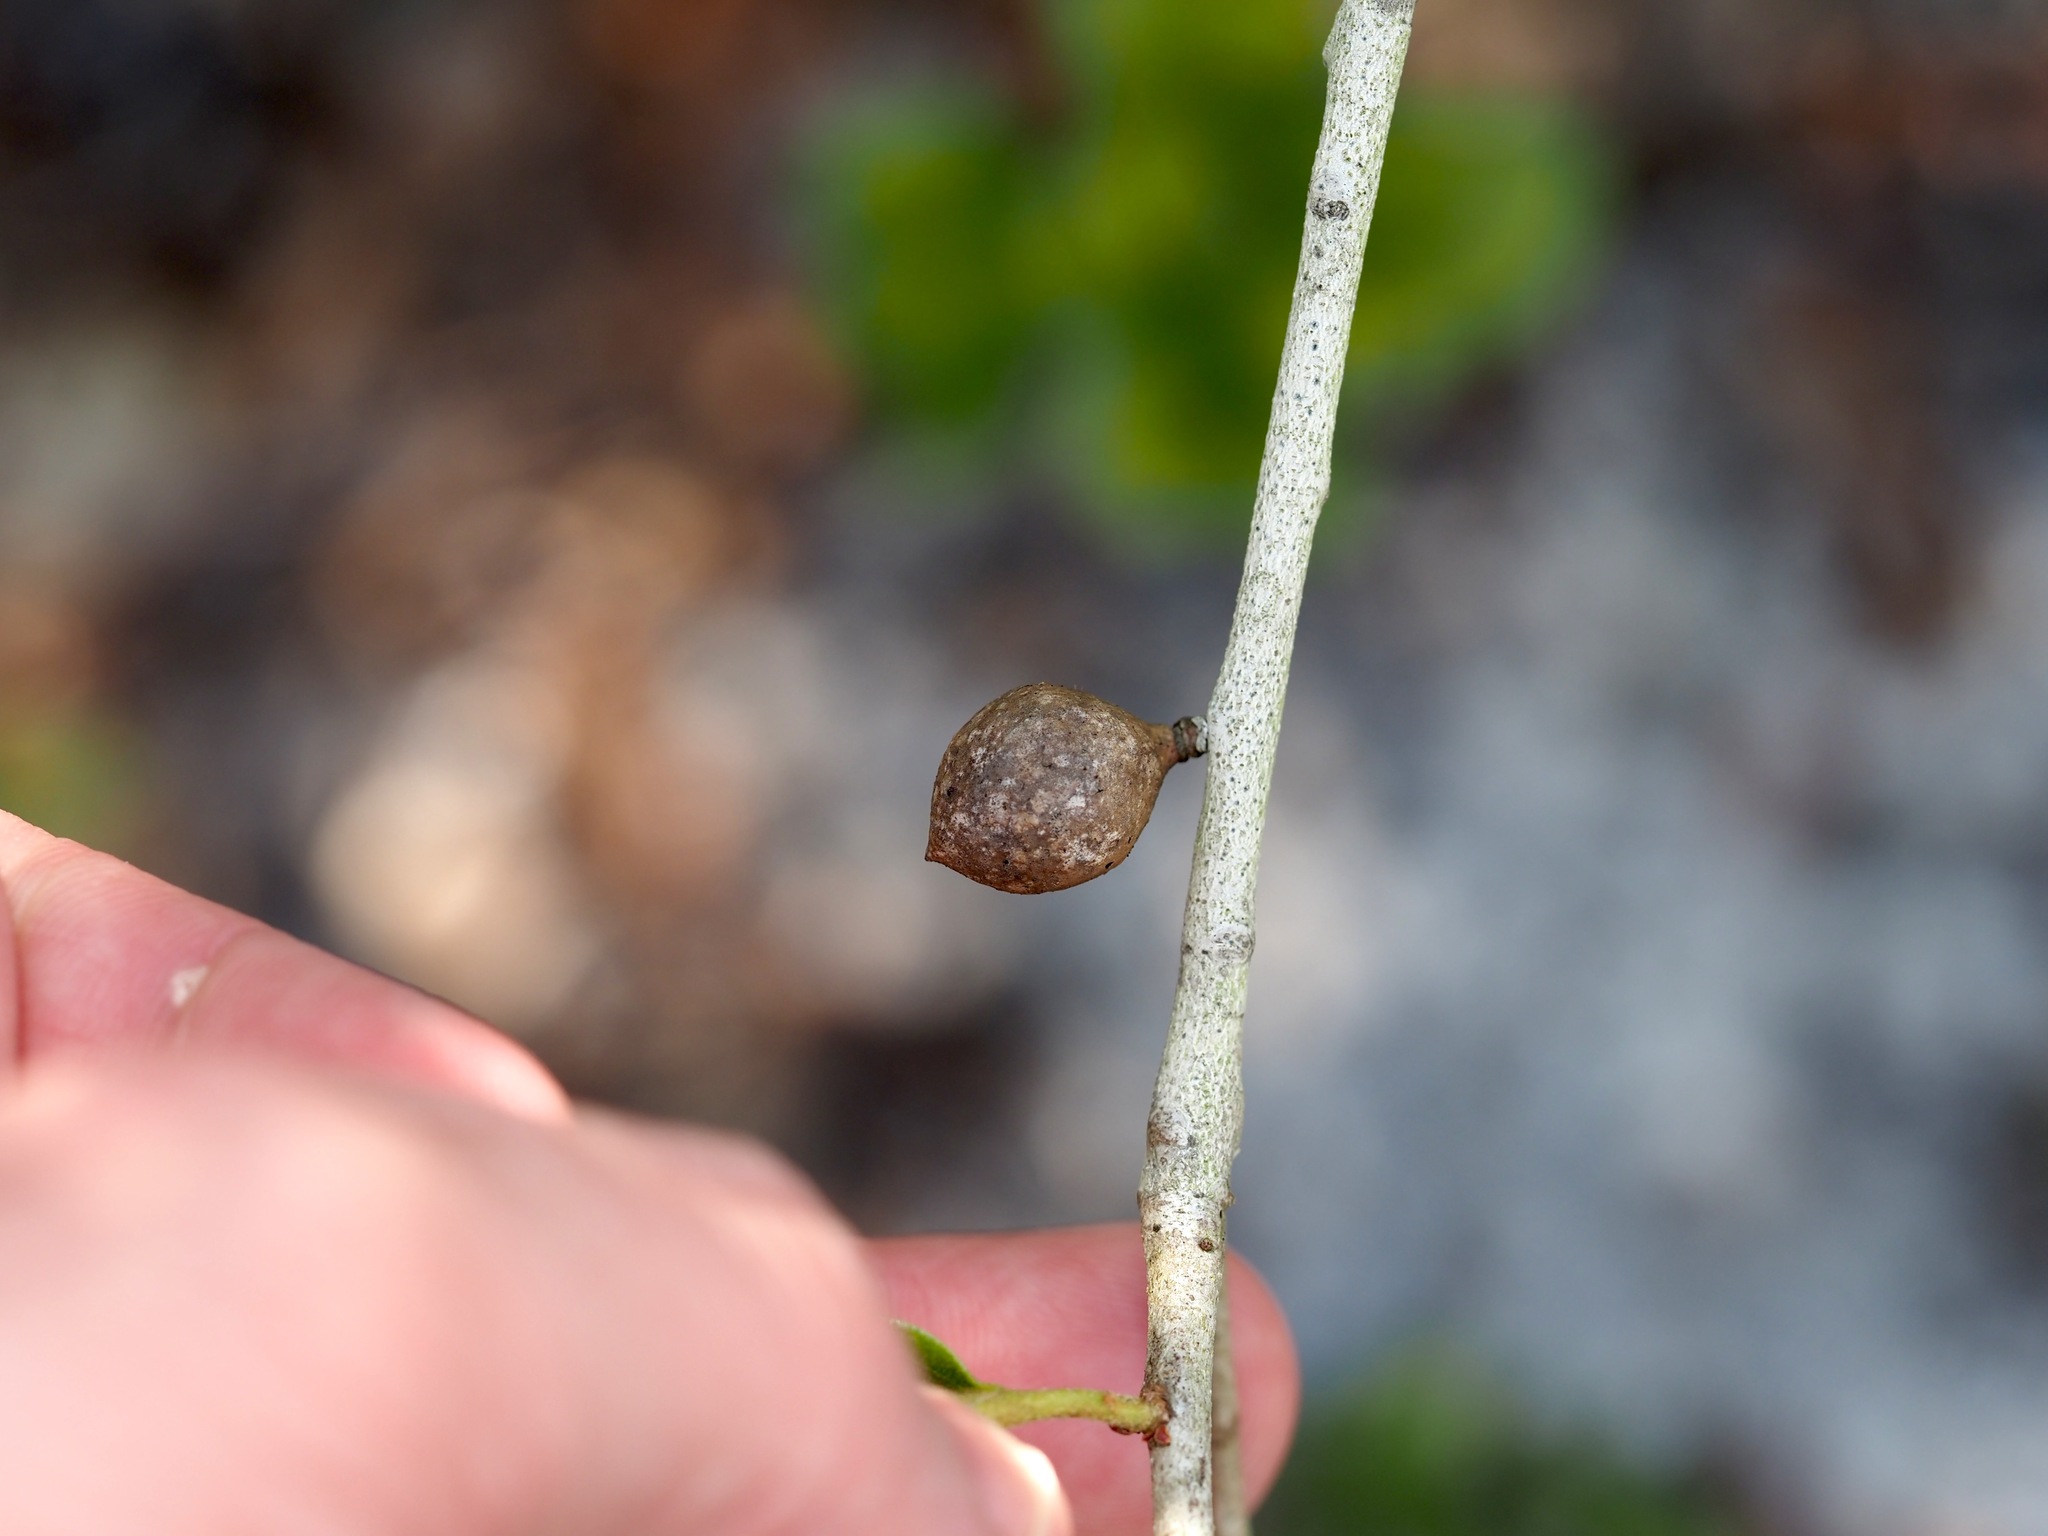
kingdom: Animalia
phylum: Arthropoda
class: Insecta
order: Hymenoptera
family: Cynipidae
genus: Amphibolips
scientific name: Amphibolips
